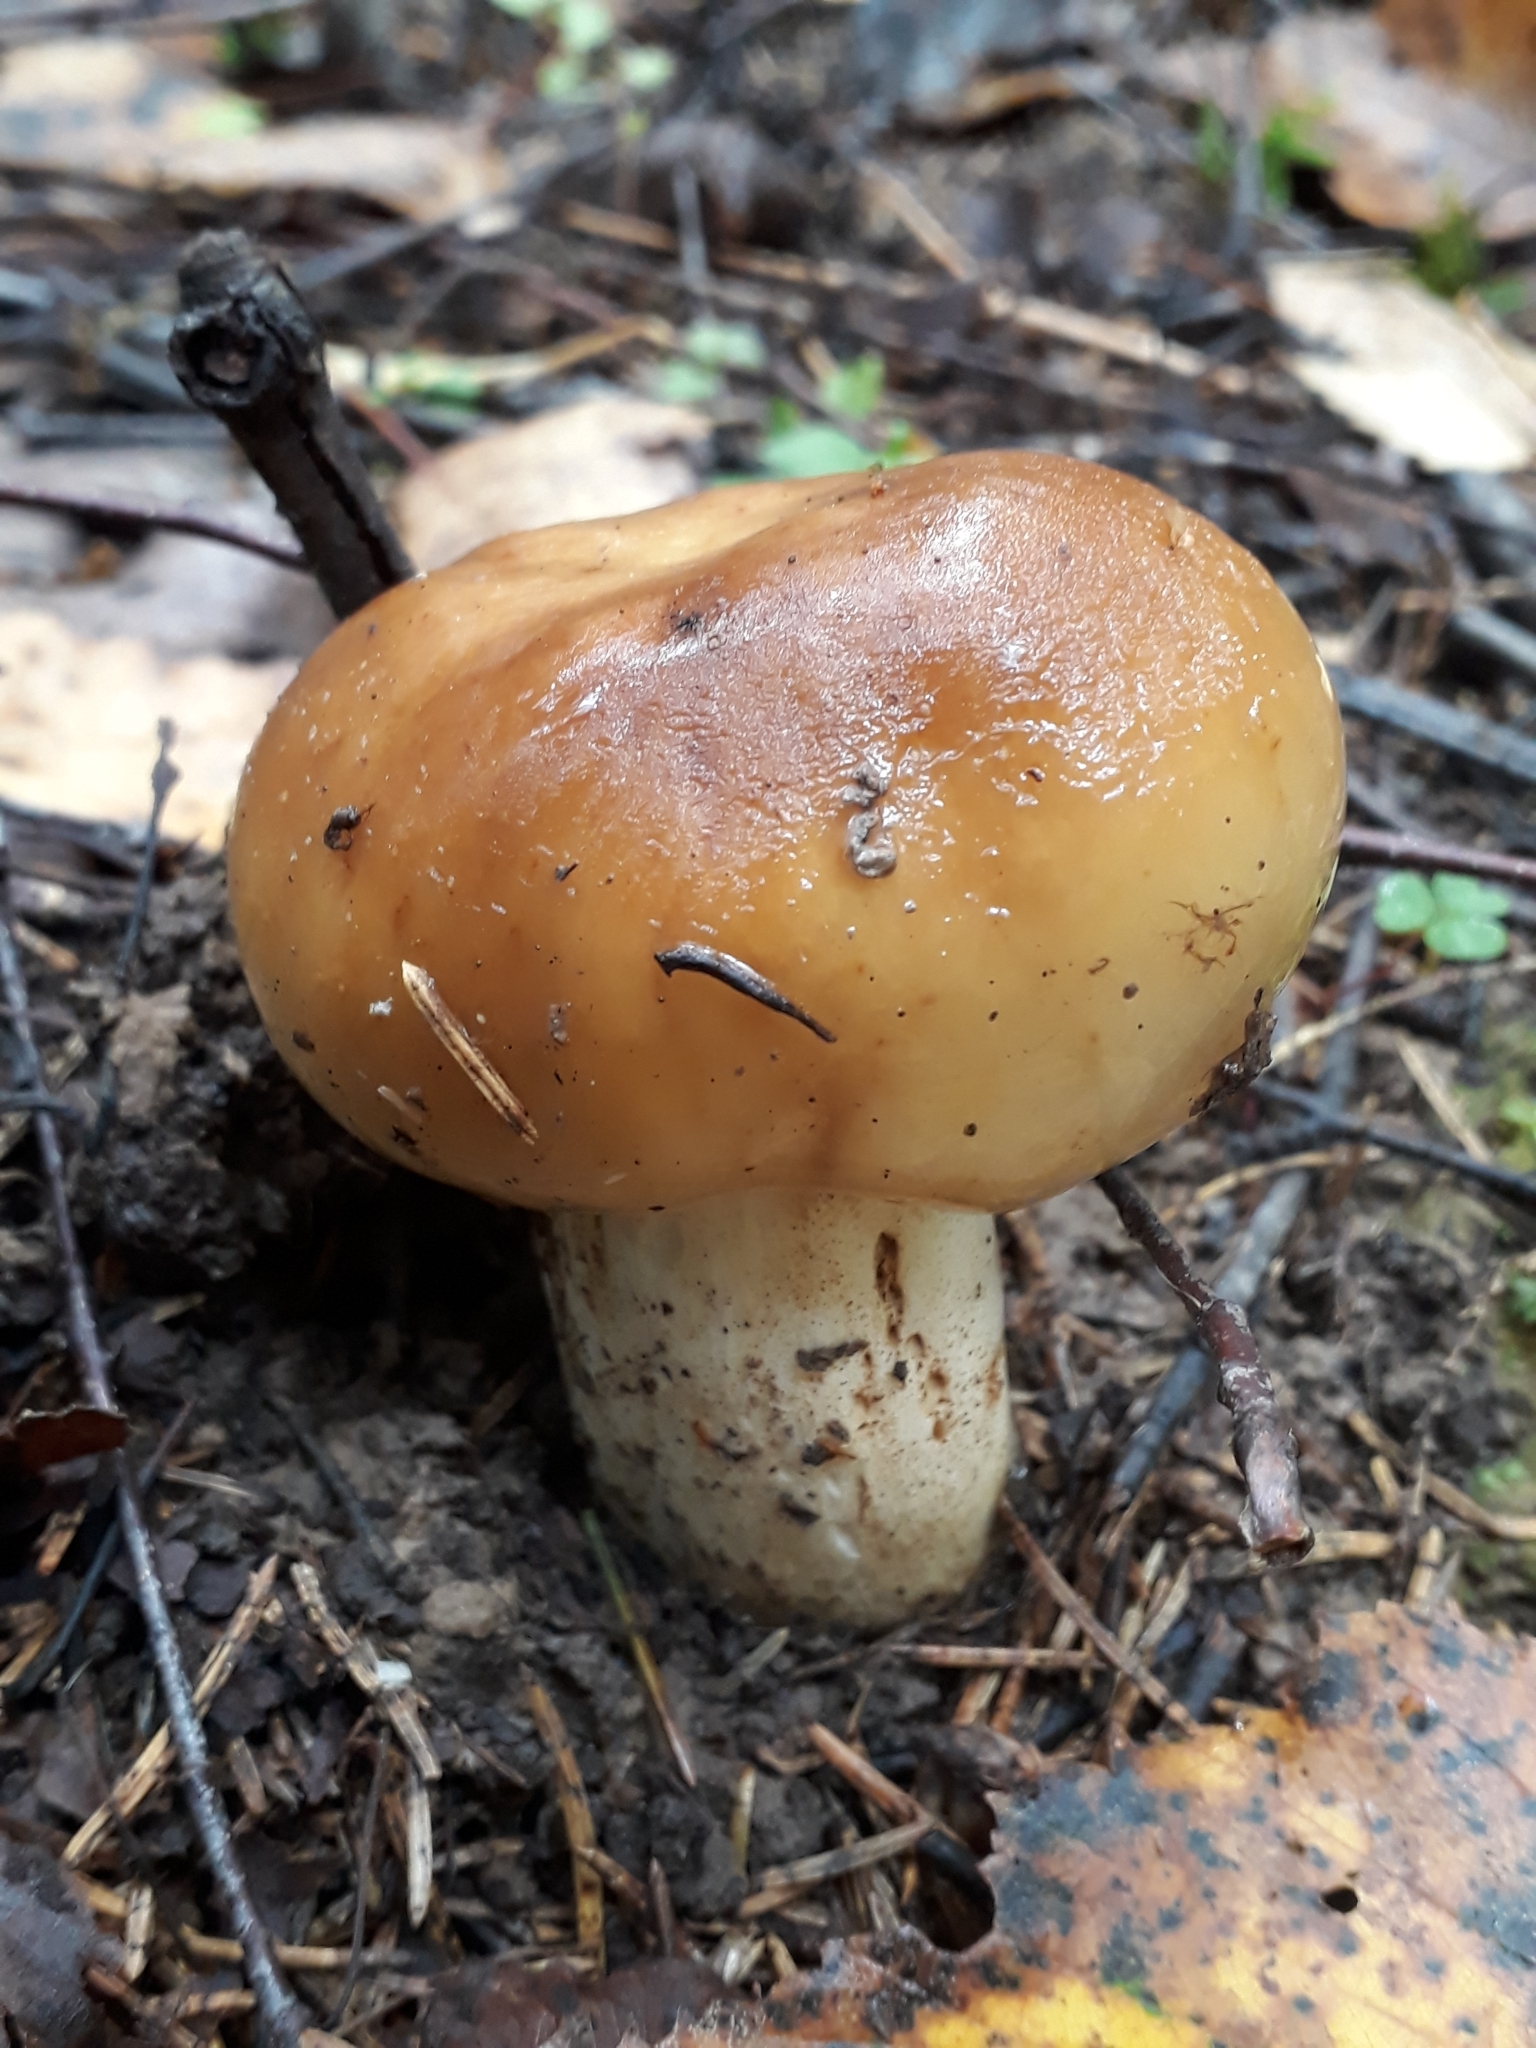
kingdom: Fungi
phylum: Basidiomycota
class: Agaricomycetes
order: Russulales
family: Russulaceae
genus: Russula
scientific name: Russula foetens
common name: Foetid russula
